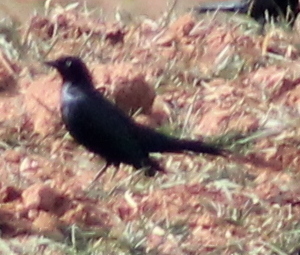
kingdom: Animalia
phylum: Chordata
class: Aves
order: Passeriformes
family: Icteridae
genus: Euphagus
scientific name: Euphagus cyanocephalus
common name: Brewer's blackbird
